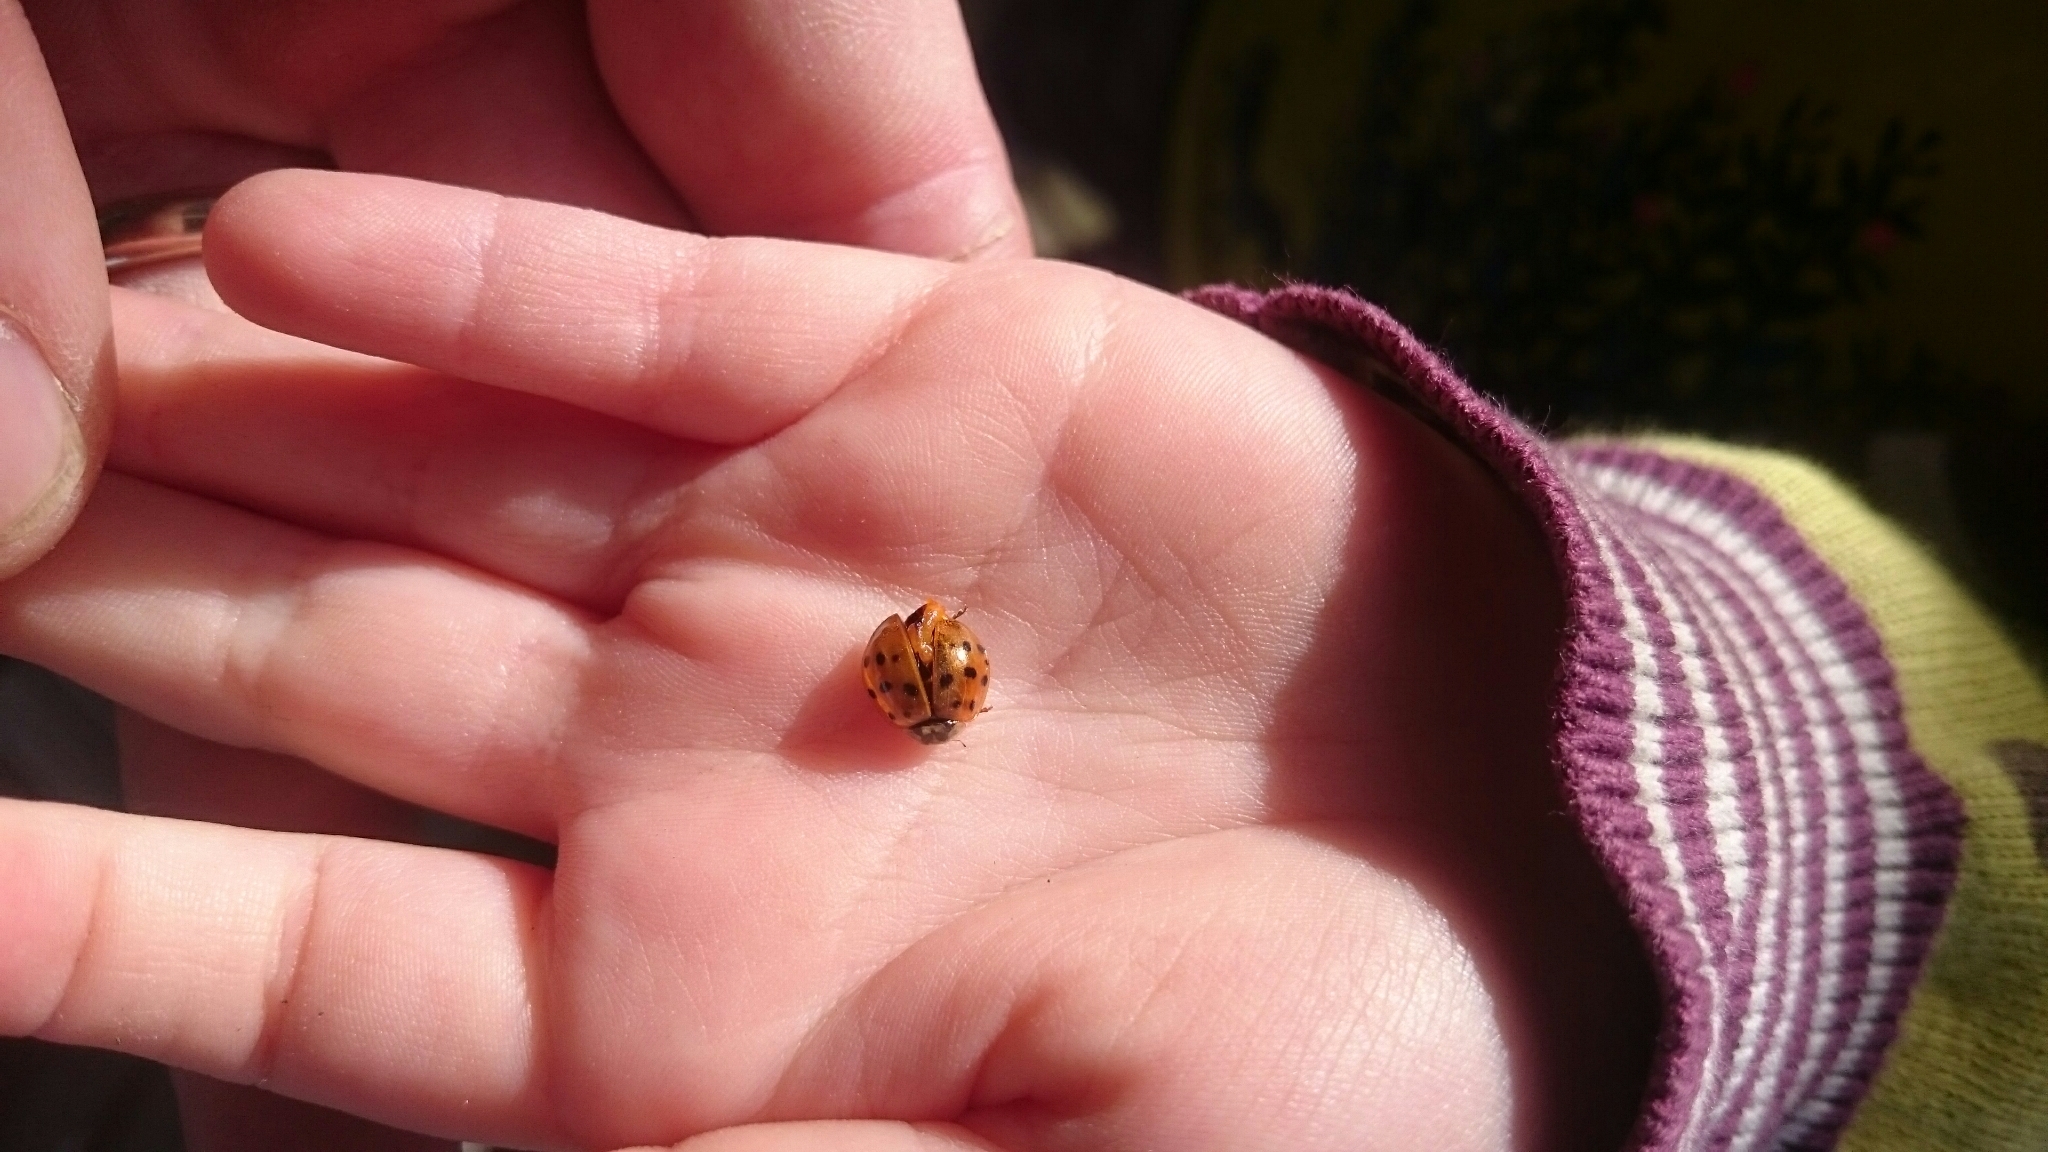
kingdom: Animalia
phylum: Arthropoda
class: Insecta
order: Coleoptera
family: Coccinellidae
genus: Harmonia
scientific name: Harmonia axyridis
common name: Harlequin ladybird
